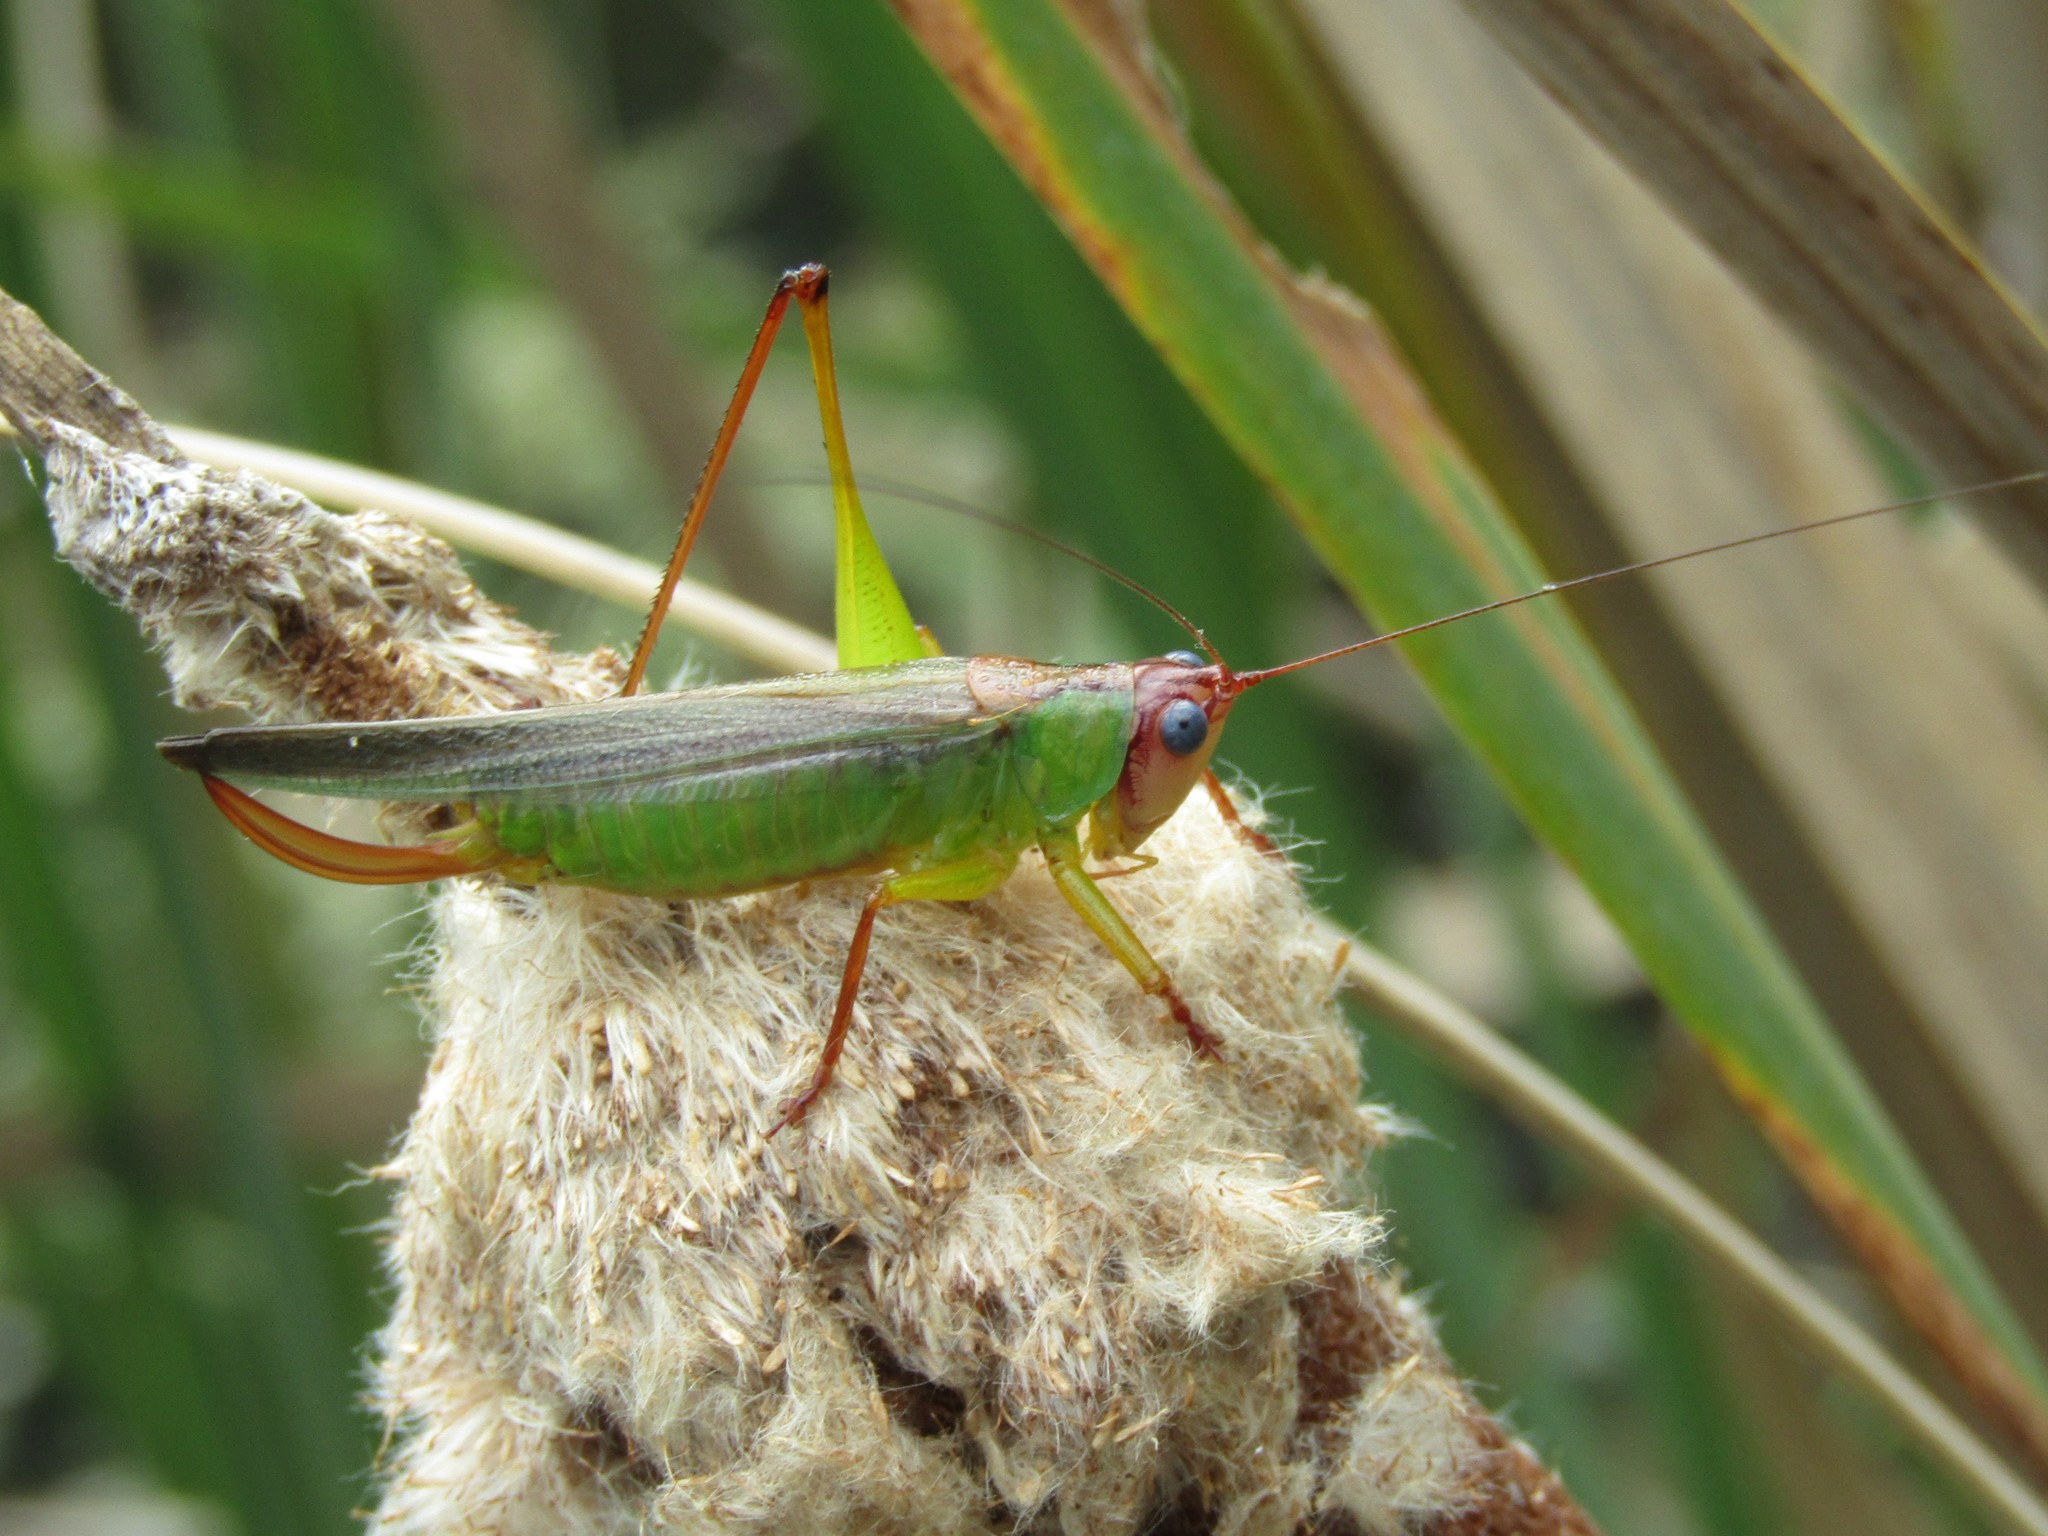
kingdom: Animalia
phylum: Arthropoda
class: Insecta
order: Orthoptera
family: Tettigoniidae
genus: Orchelimum
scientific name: Orchelimum pulchellum
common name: Handsome meadow katydid
